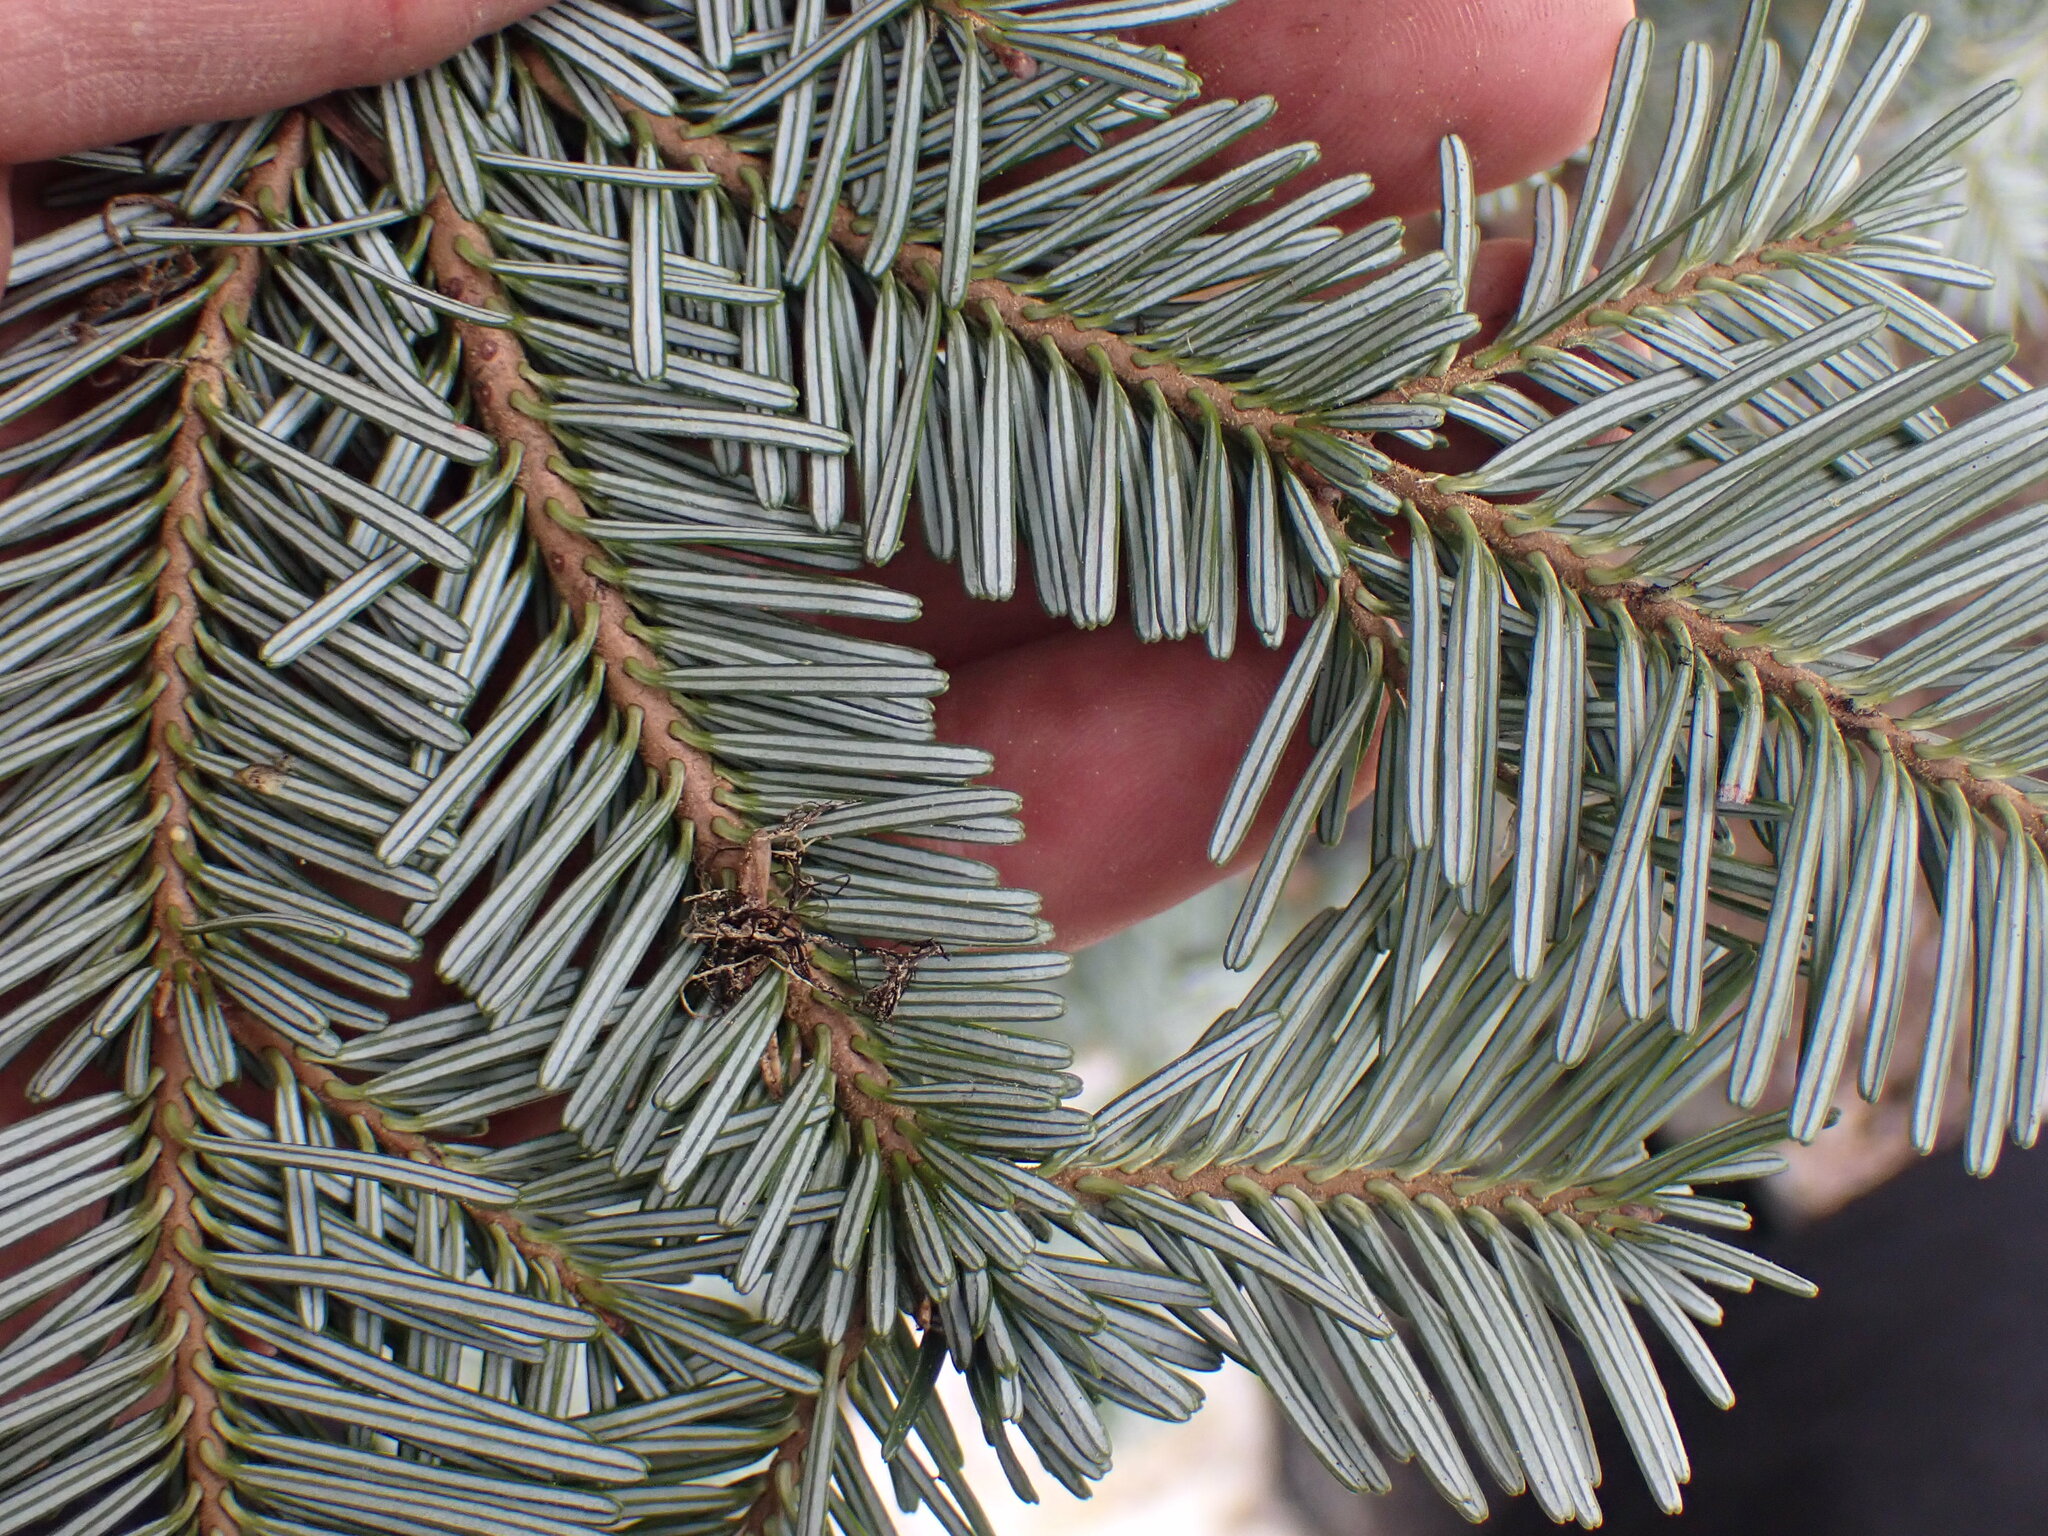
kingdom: Plantae
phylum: Tracheophyta
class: Pinopsida
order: Pinales
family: Pinaceae
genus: Abies
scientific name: Abies amabilis
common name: Pacific silver fir
